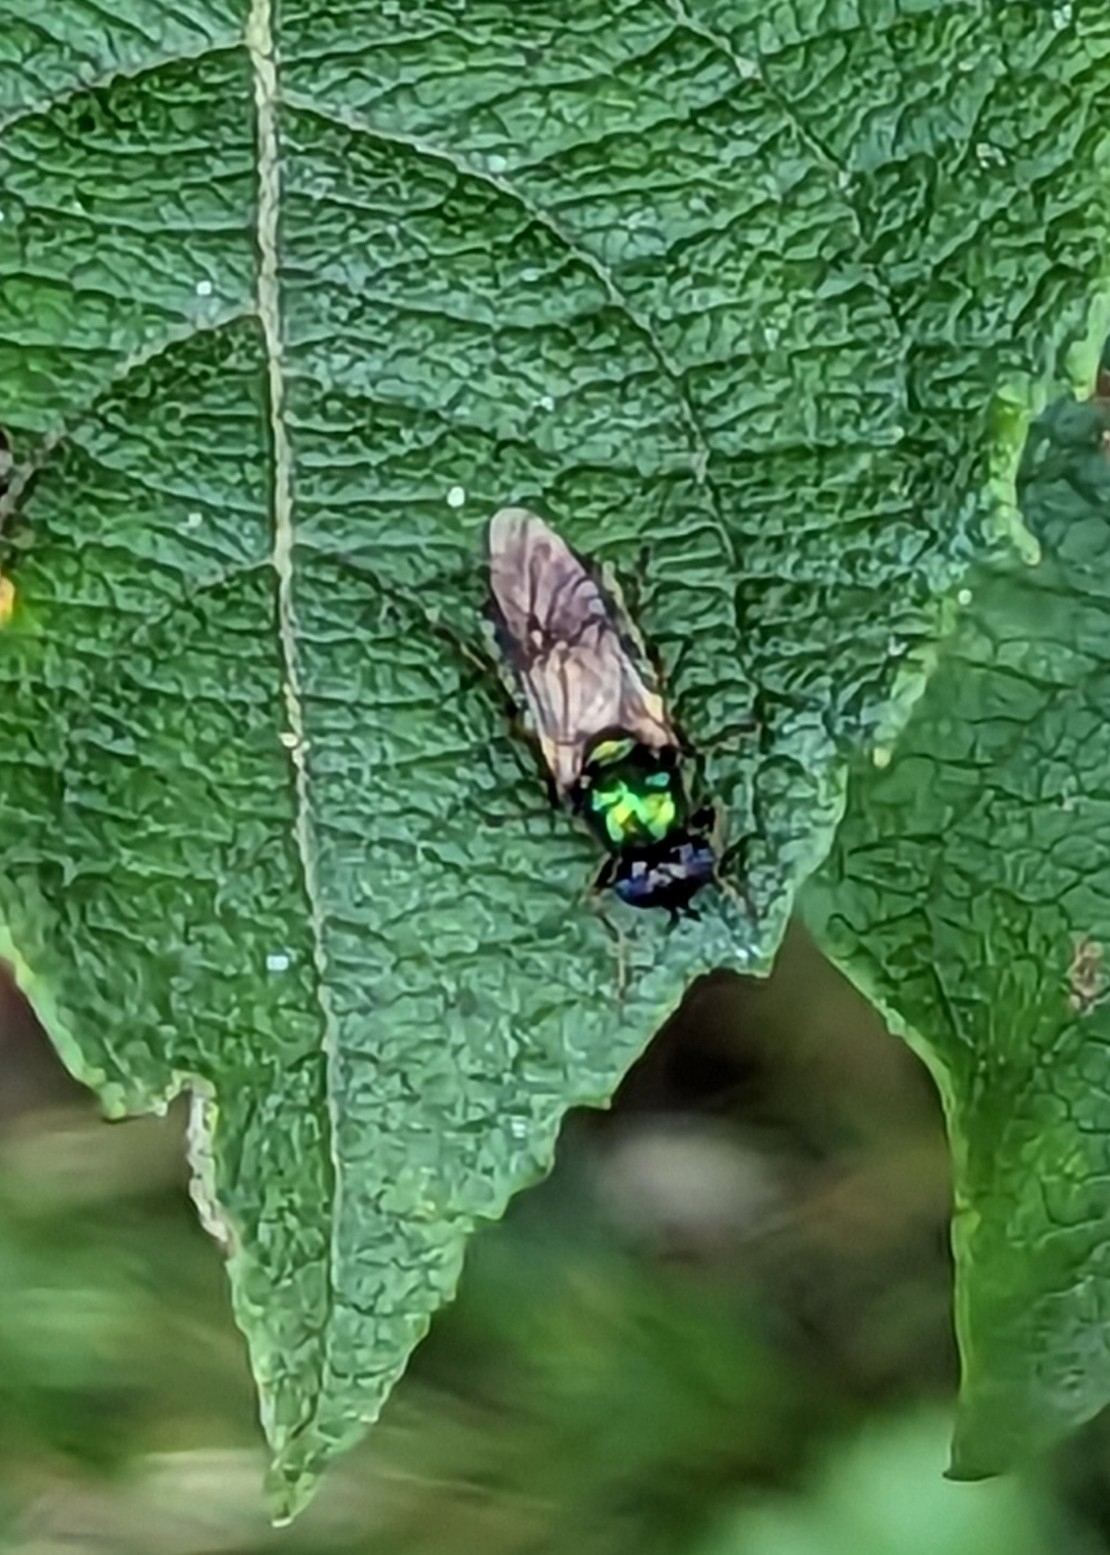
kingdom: Animalia
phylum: Arthropoda
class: Insecta
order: Diptera
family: Stratiomyidae
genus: Chloromyia
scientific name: Chloromyia formosa
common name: Soldier fly
